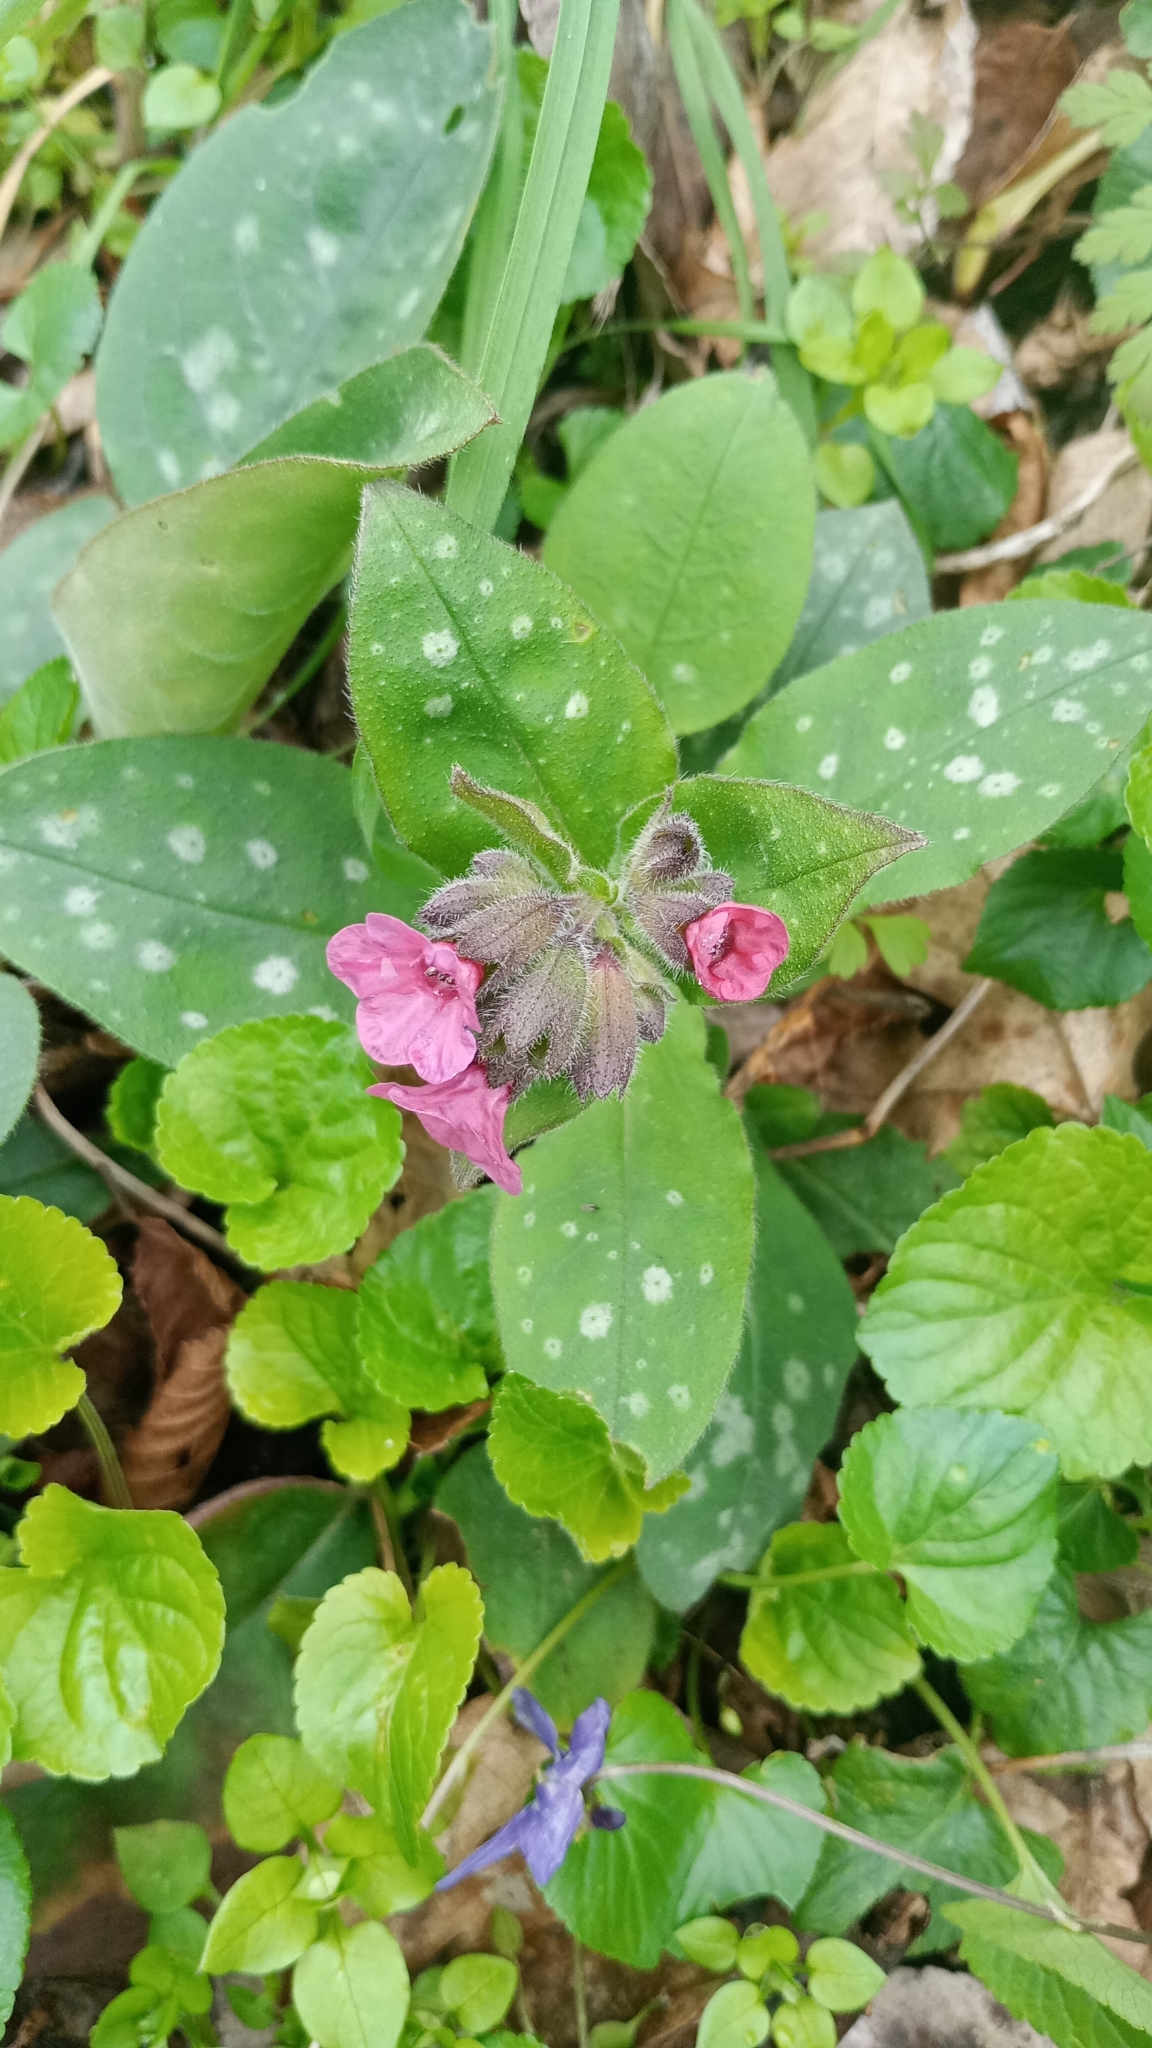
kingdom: Plantae
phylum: Tracheophyta
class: Magnoliopsida
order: Boraginales
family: Boraginaceae
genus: Pulmonaria
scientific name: Pulmonaria officinalis
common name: Lungwort
